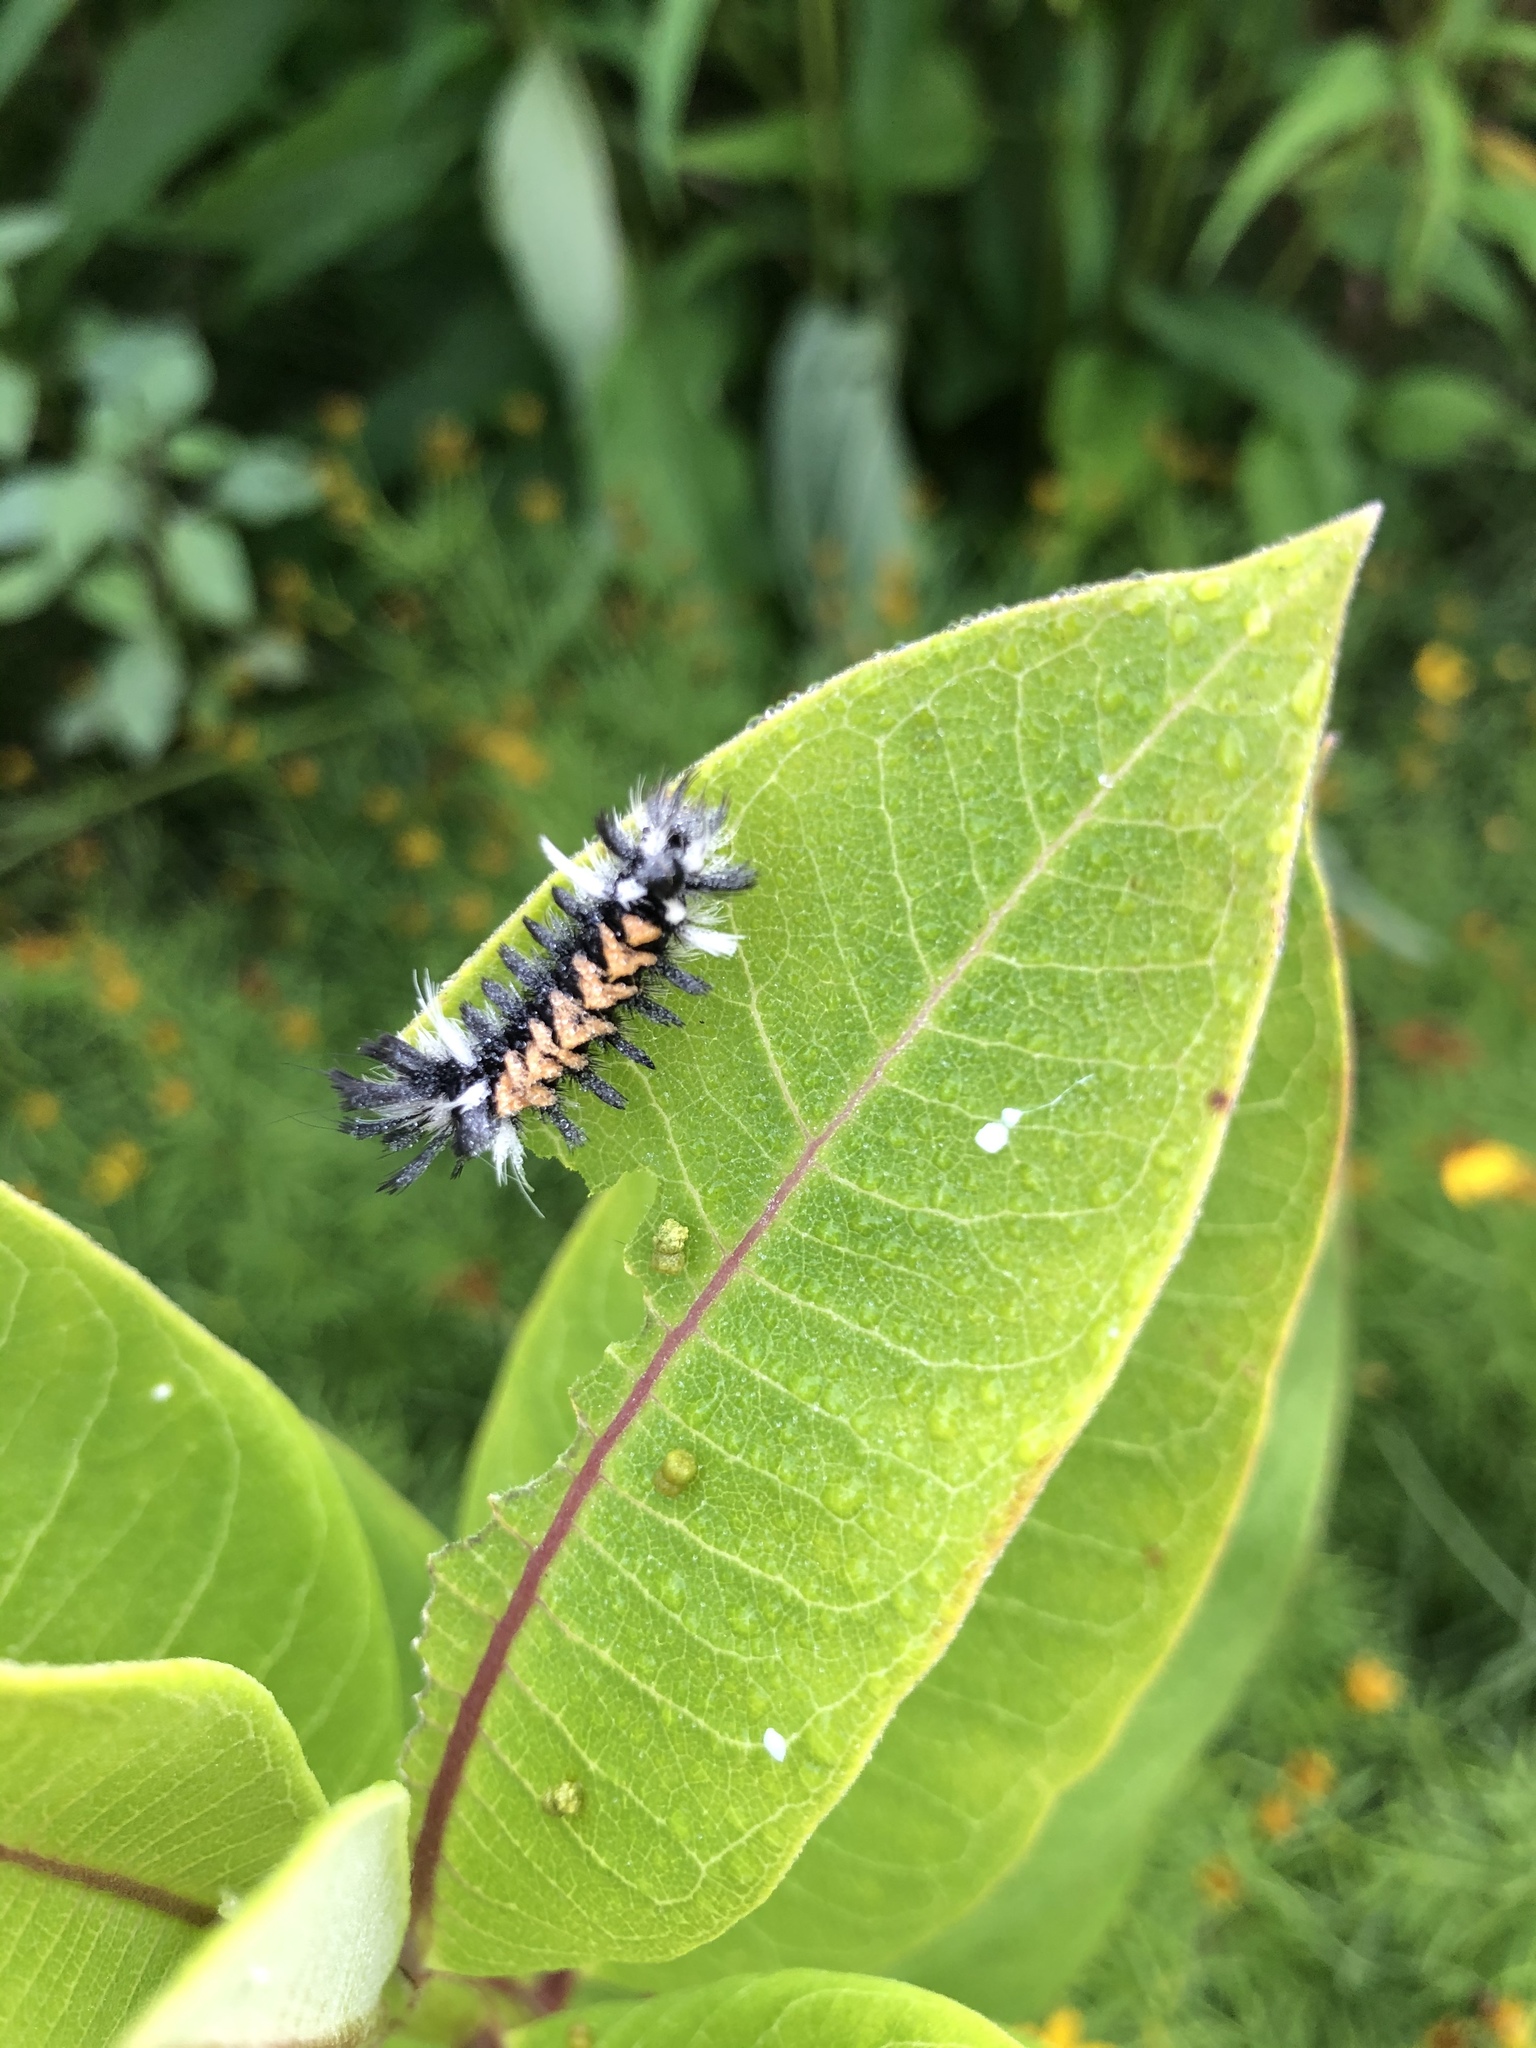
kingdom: Animalia
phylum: Arthropoda
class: Insecta
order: Lepidoptera
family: Erebidae
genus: Euchaetes
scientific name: Euchaetes egle
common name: Milkweed tussock moth
